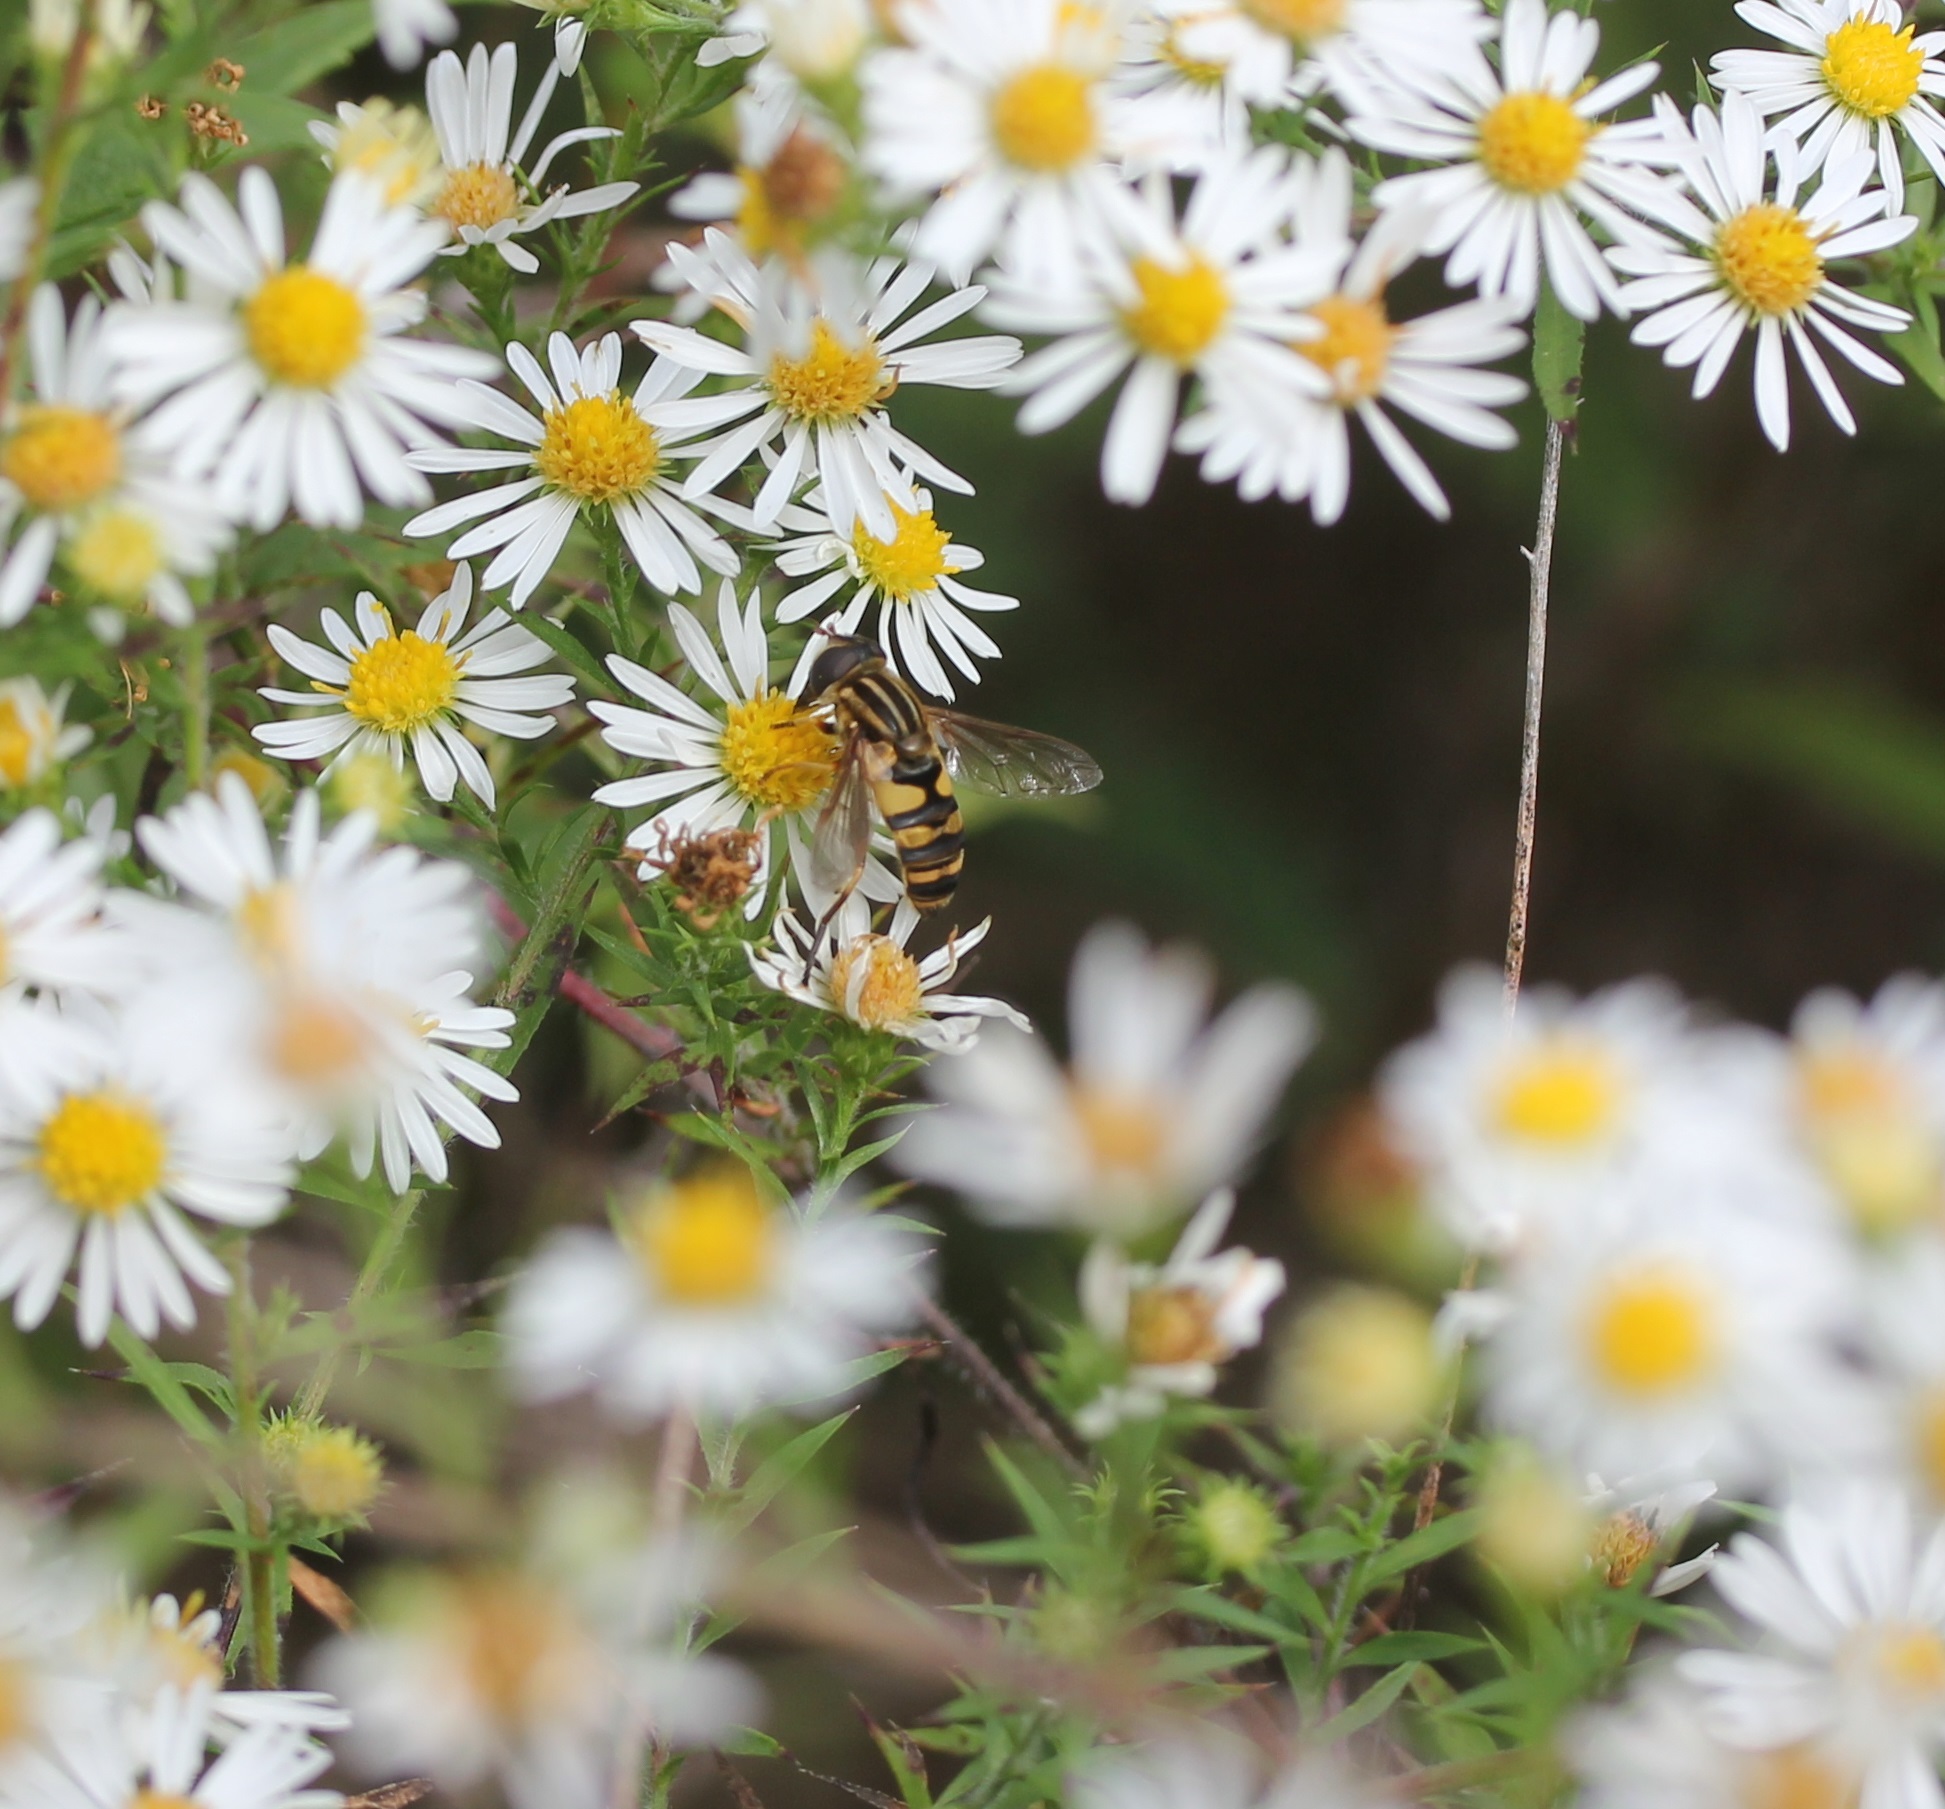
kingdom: Animalia
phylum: Arthropoda
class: Insecta
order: Diptera
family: Syrphidae
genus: Helophilus
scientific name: Helophilus fasciatus
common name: Narrow-headed marsh fly
